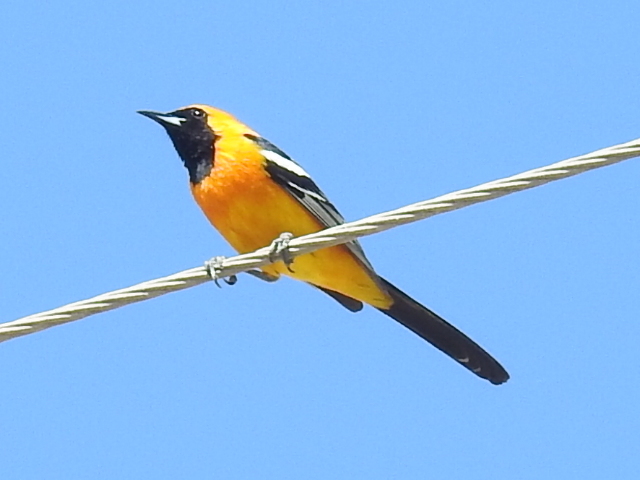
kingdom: Animalia
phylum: Chordata
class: Aves
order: Passeriformes
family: Icteridae
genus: Icterus
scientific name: Icterus cucullatus
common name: Hooded oriole
